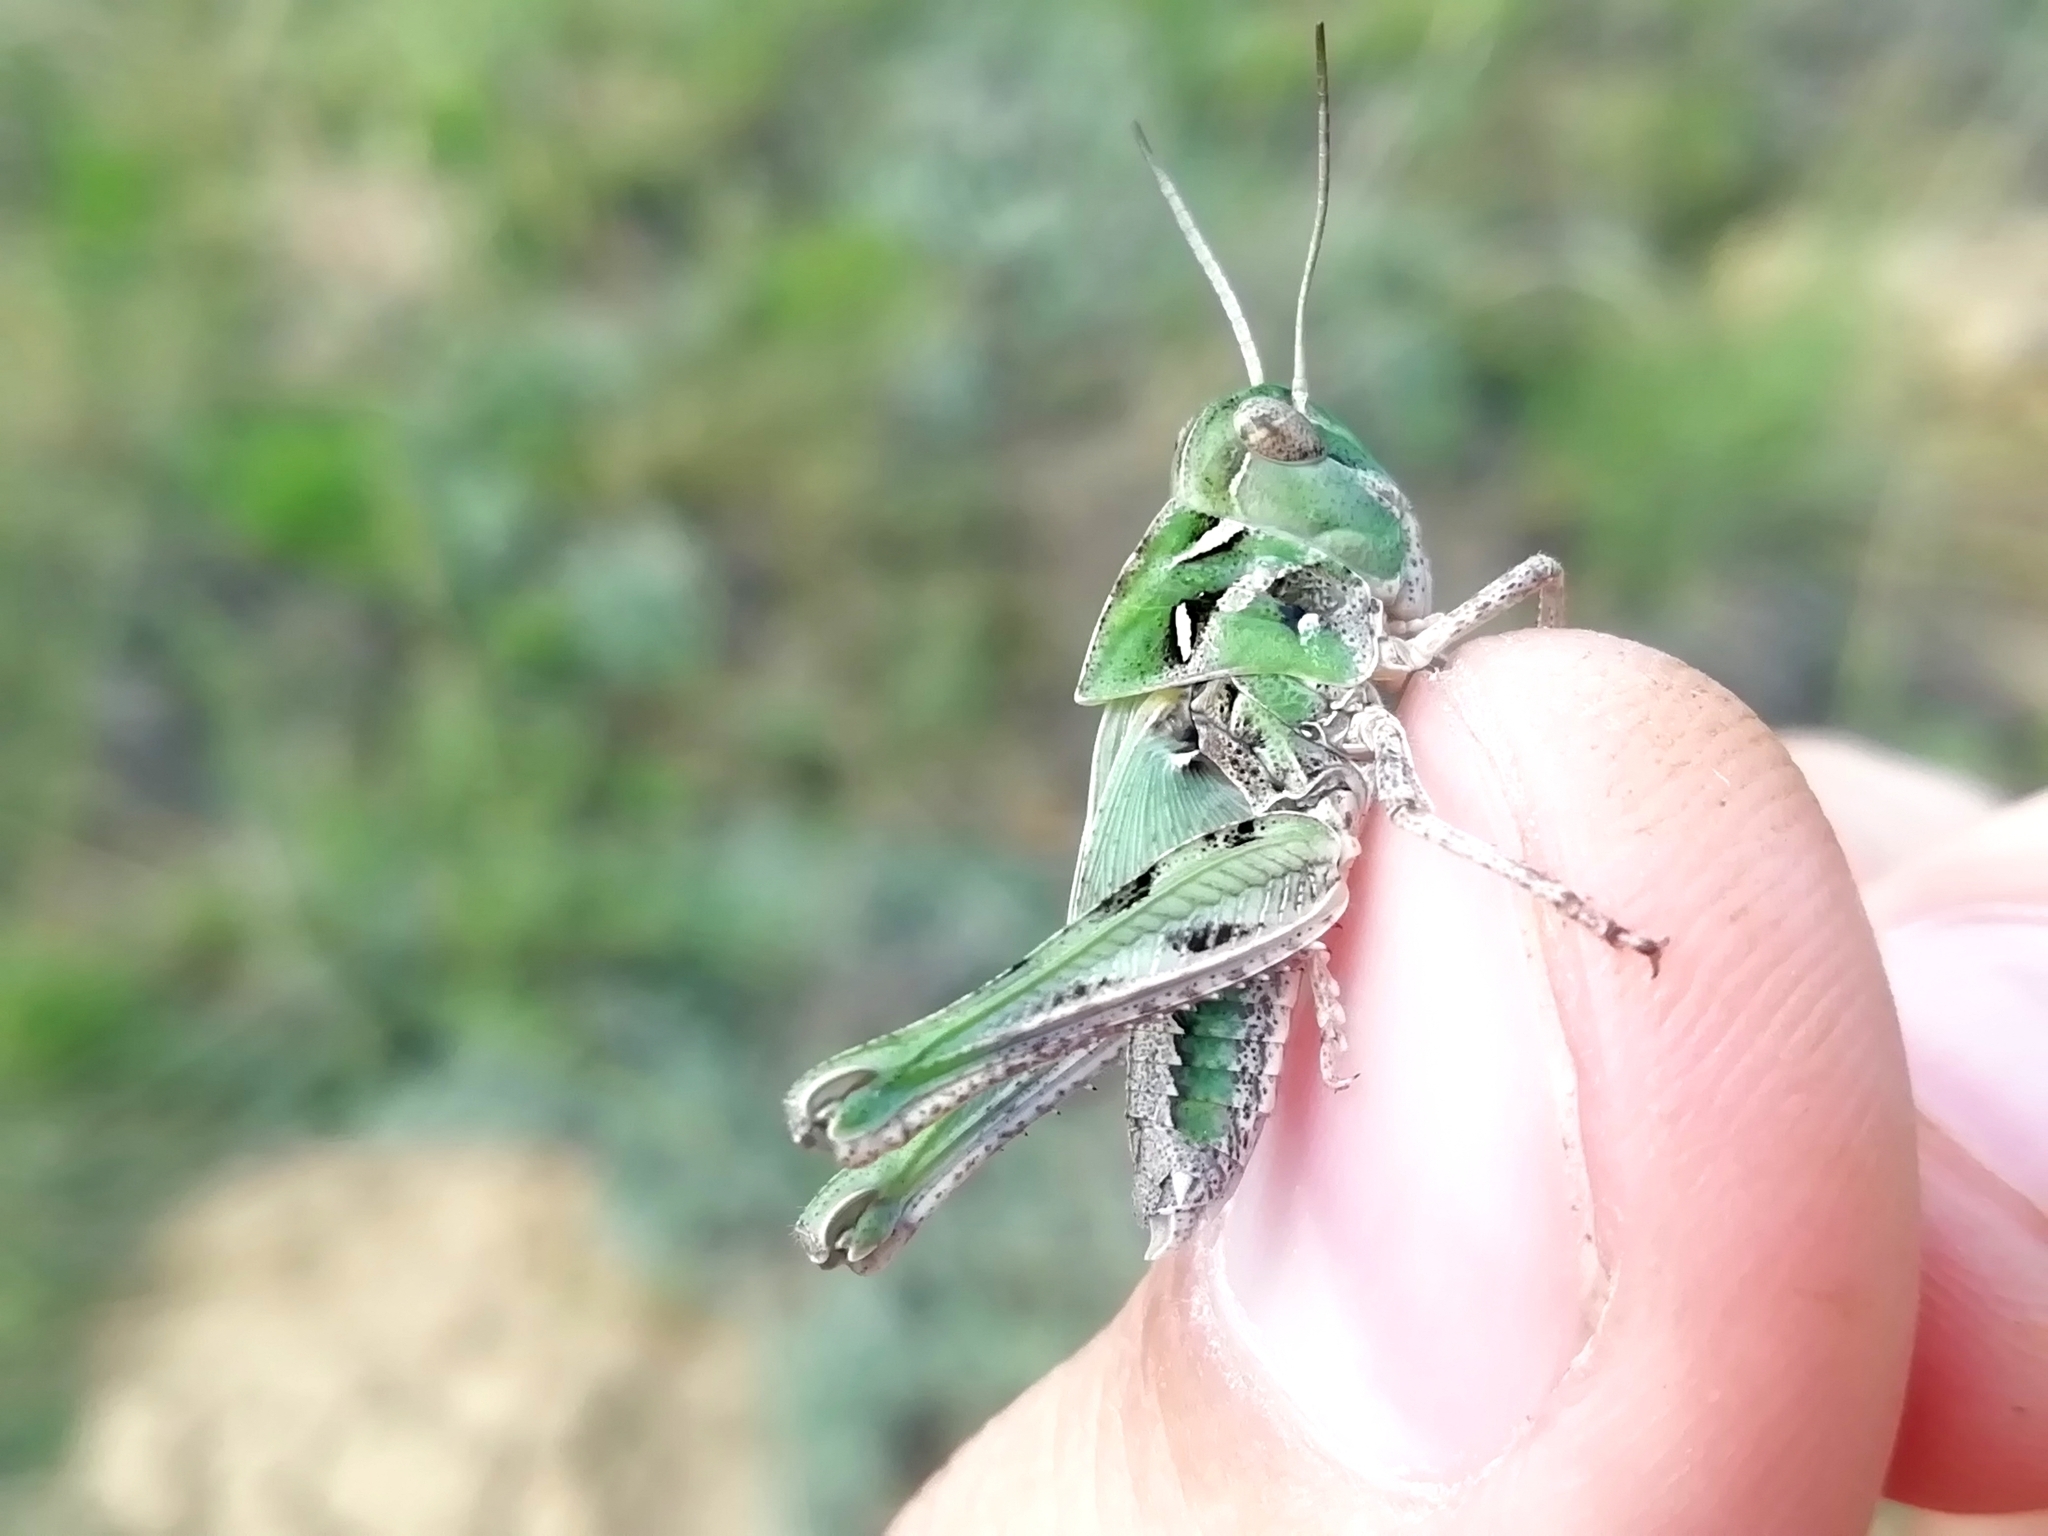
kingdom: Animalia
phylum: Arthropoda
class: Insecta
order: Orthoptera
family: Acrididae
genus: Oedaleus
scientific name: Oedaleus decorus
